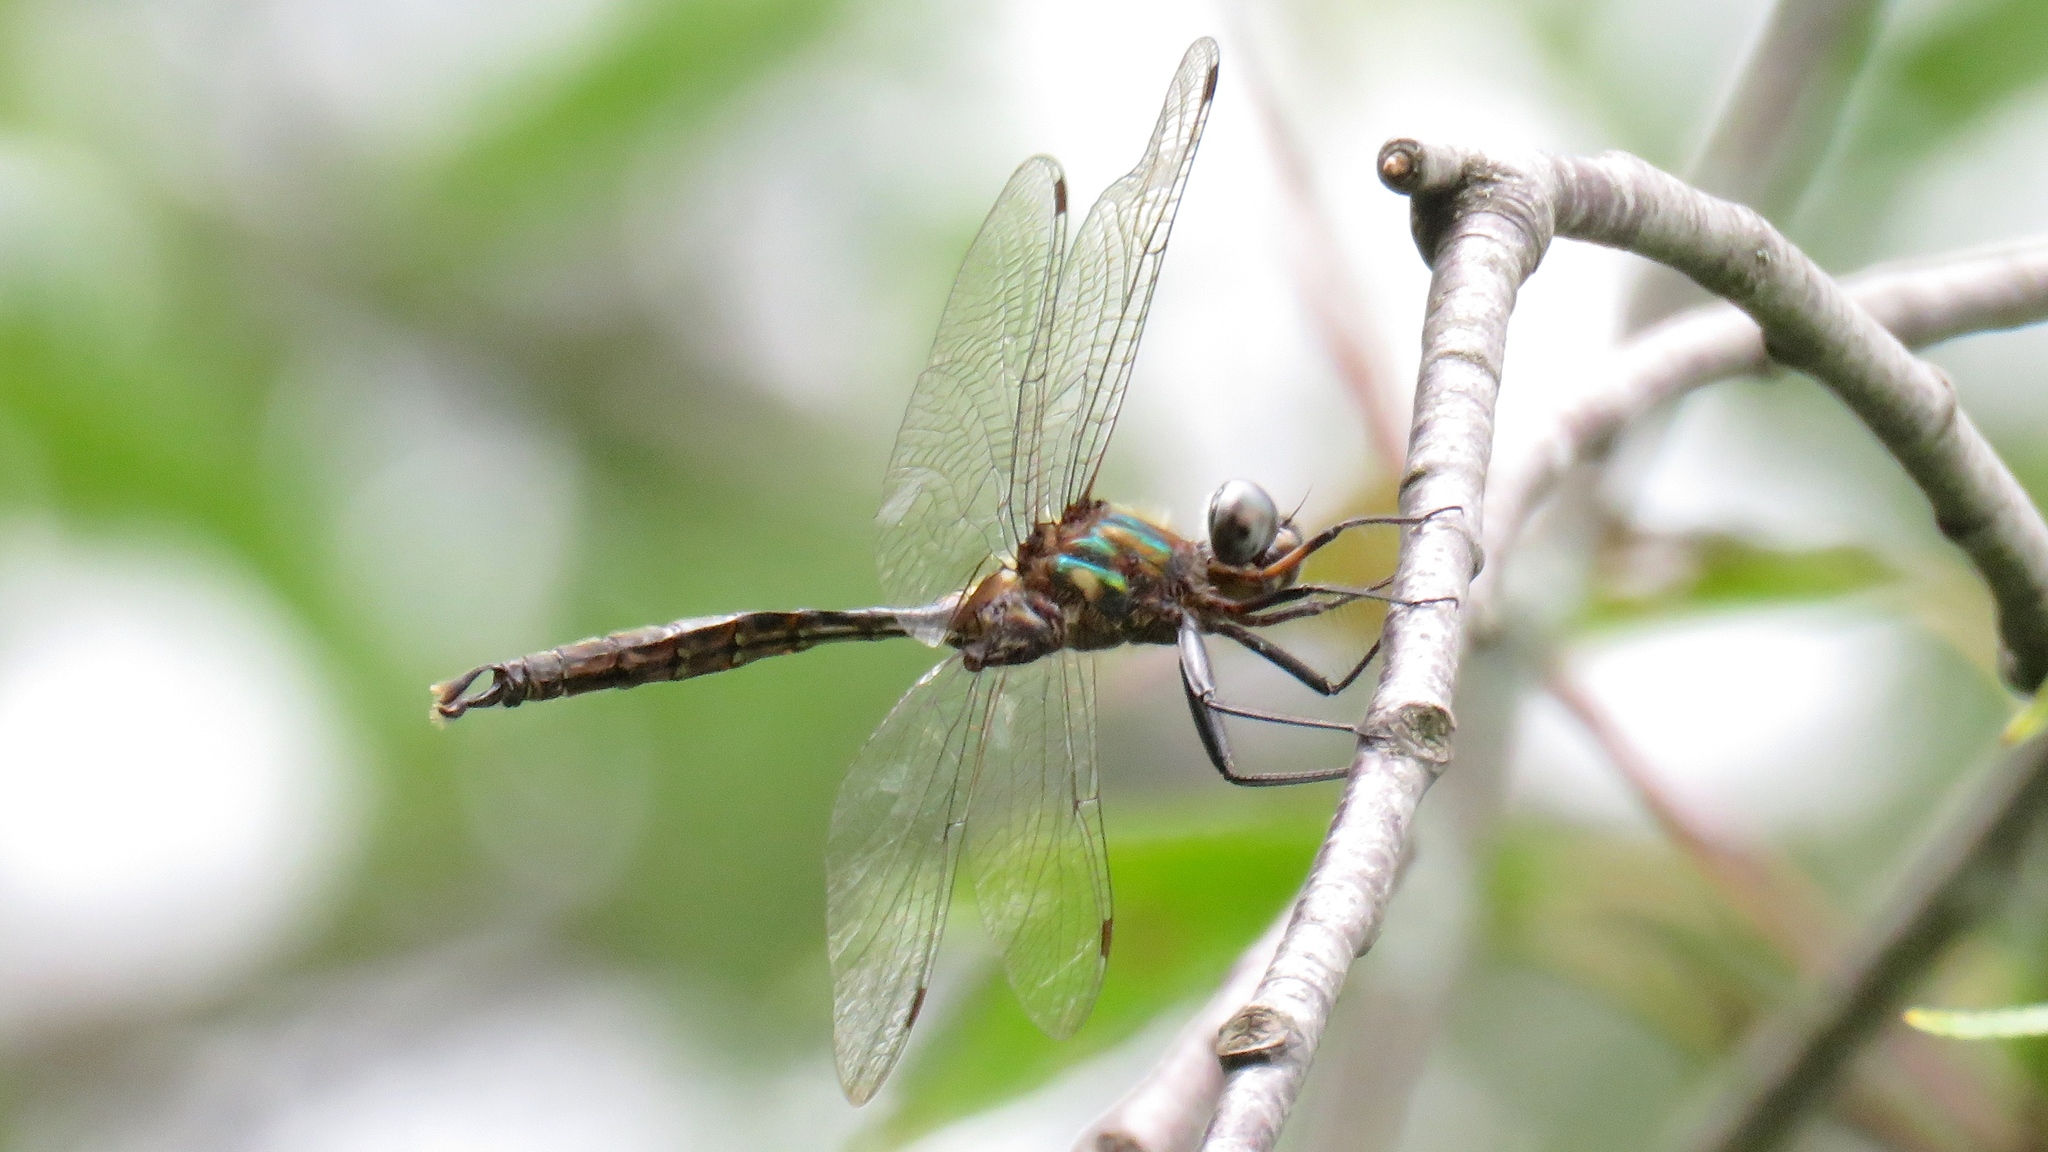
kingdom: Animalia
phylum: Arthropoda
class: Insecta
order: Odonata
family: Corduliidae
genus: Somatochlora
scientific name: Somatochlora walshii
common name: Brush-tipped emerald
